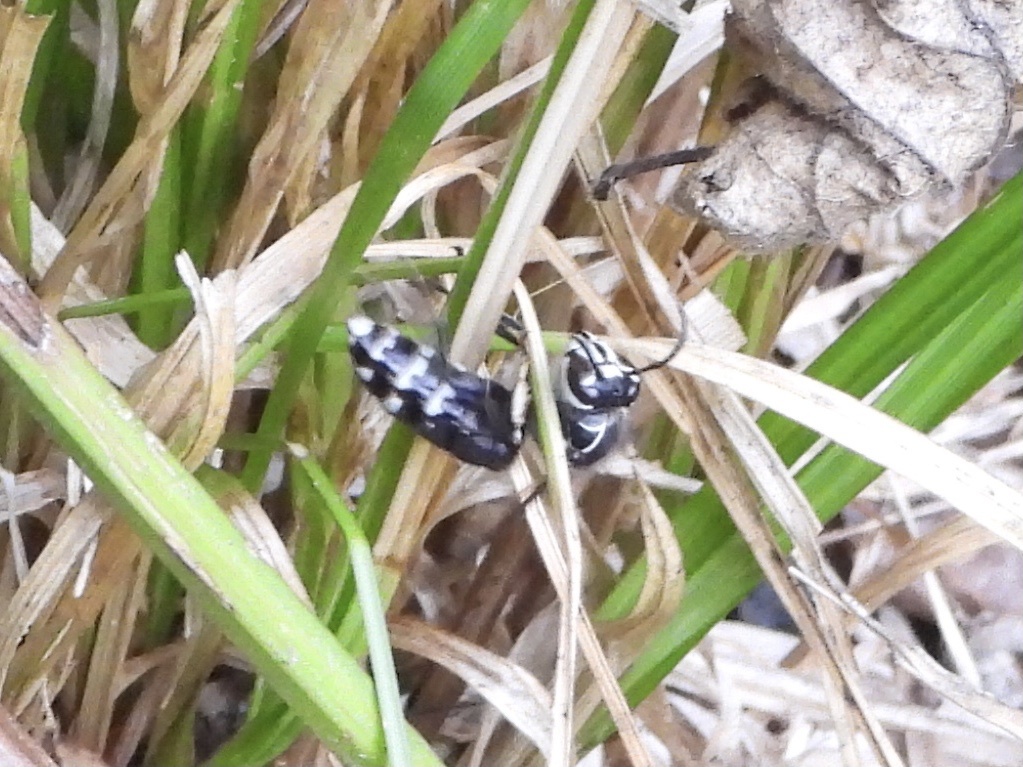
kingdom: Animalia
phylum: Arthropoda
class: Insecta
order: Hymenoptera
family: Vespidae
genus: Dolichovespula
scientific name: Dolichovespula maculata
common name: Bald-faced hornet
